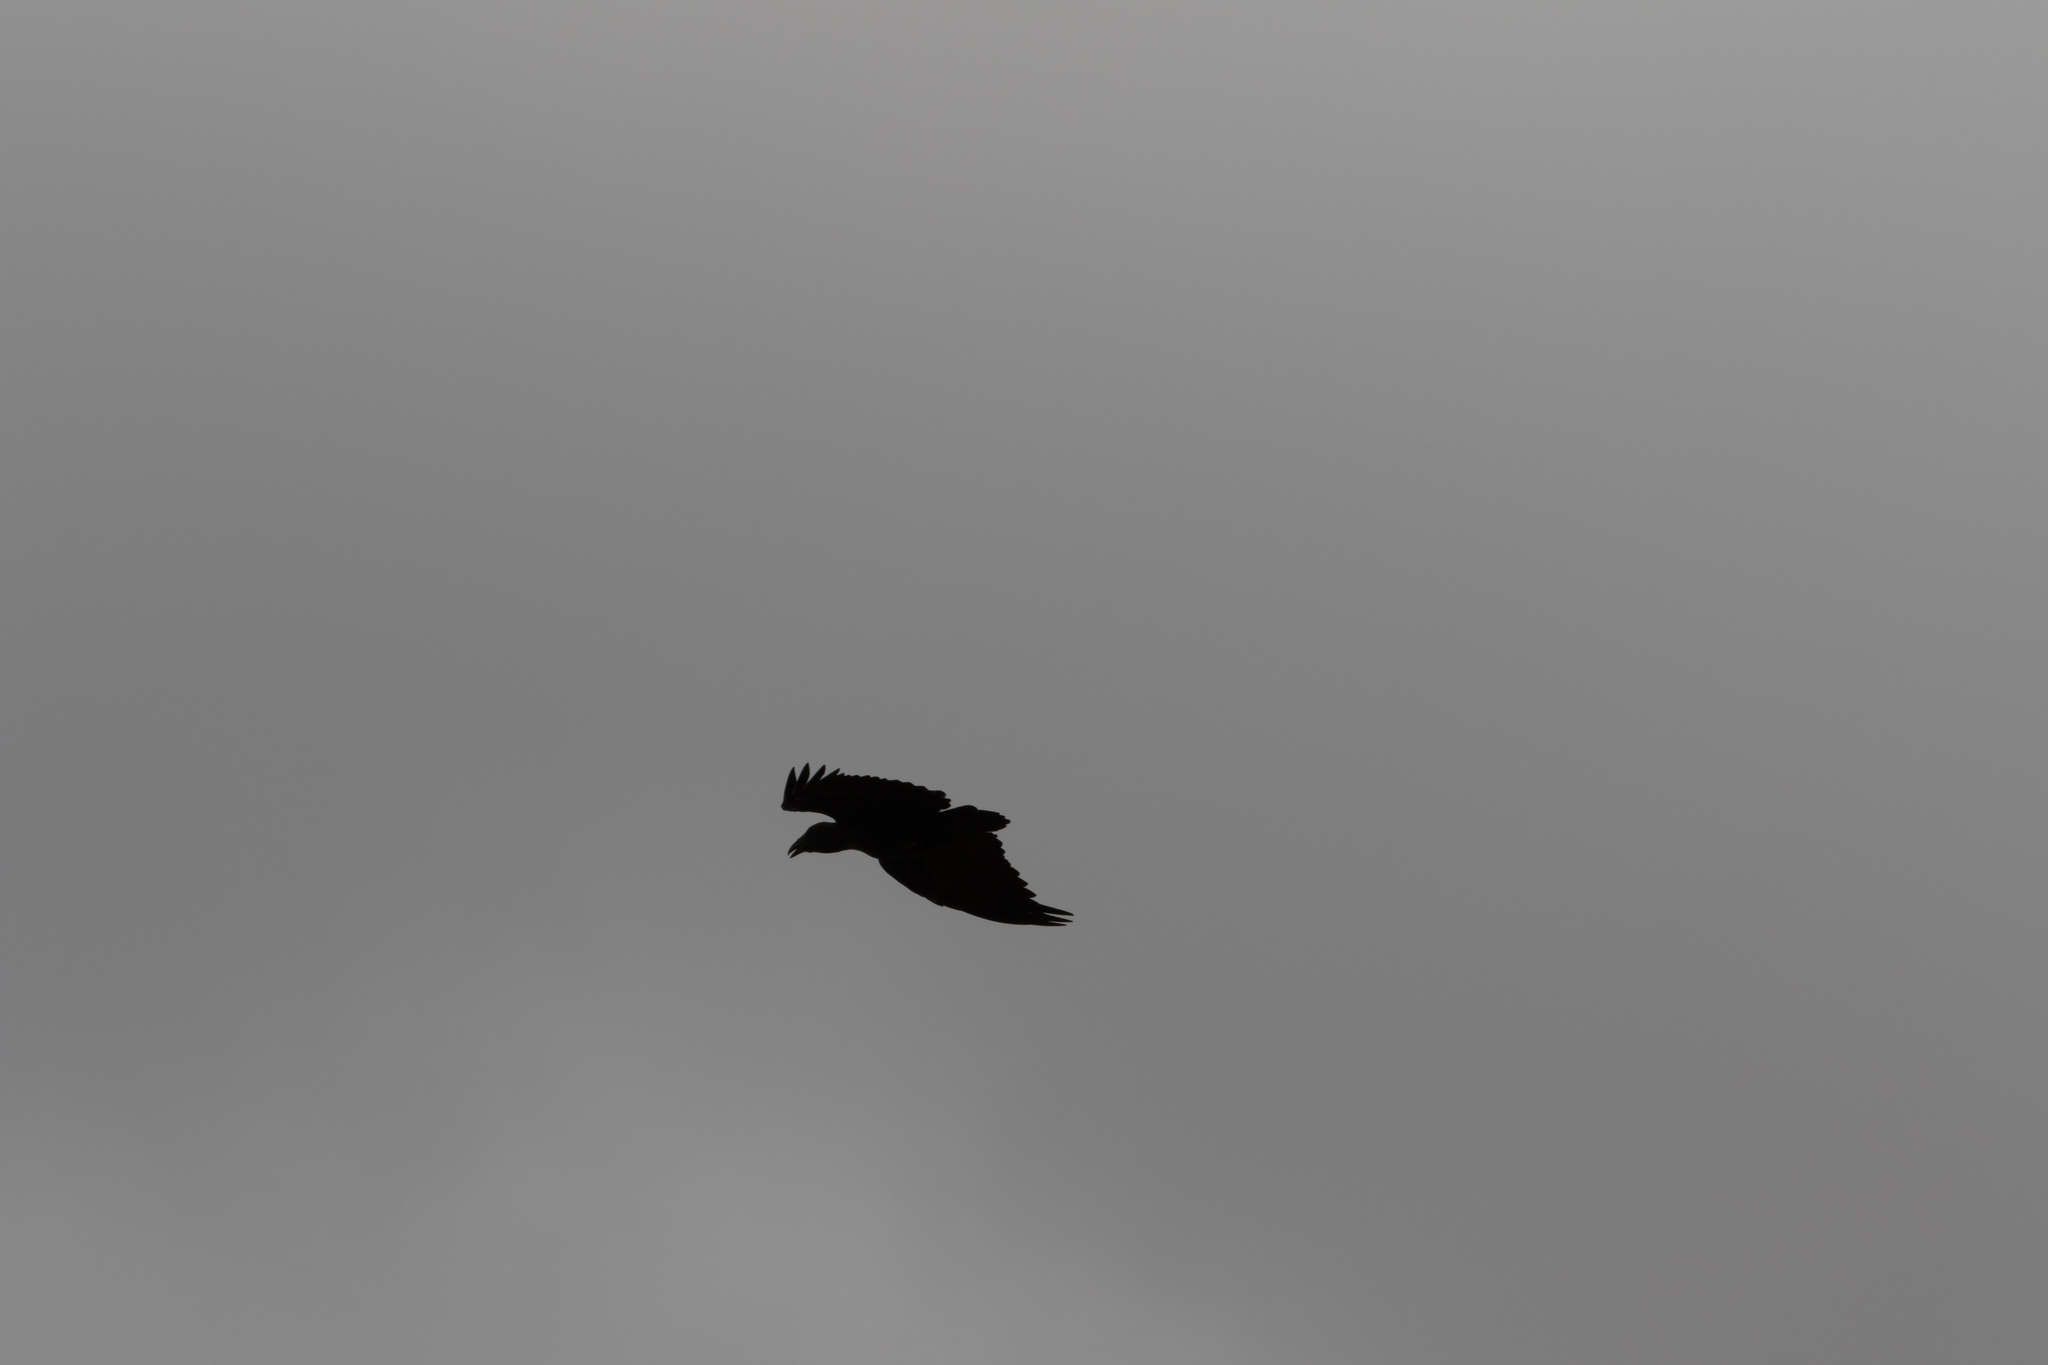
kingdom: Animalia
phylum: Chordata
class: Aves
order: Passeriformes
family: Corvidae
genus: Corvus
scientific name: Corvus rhipidurus
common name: Fan-tailed raven
